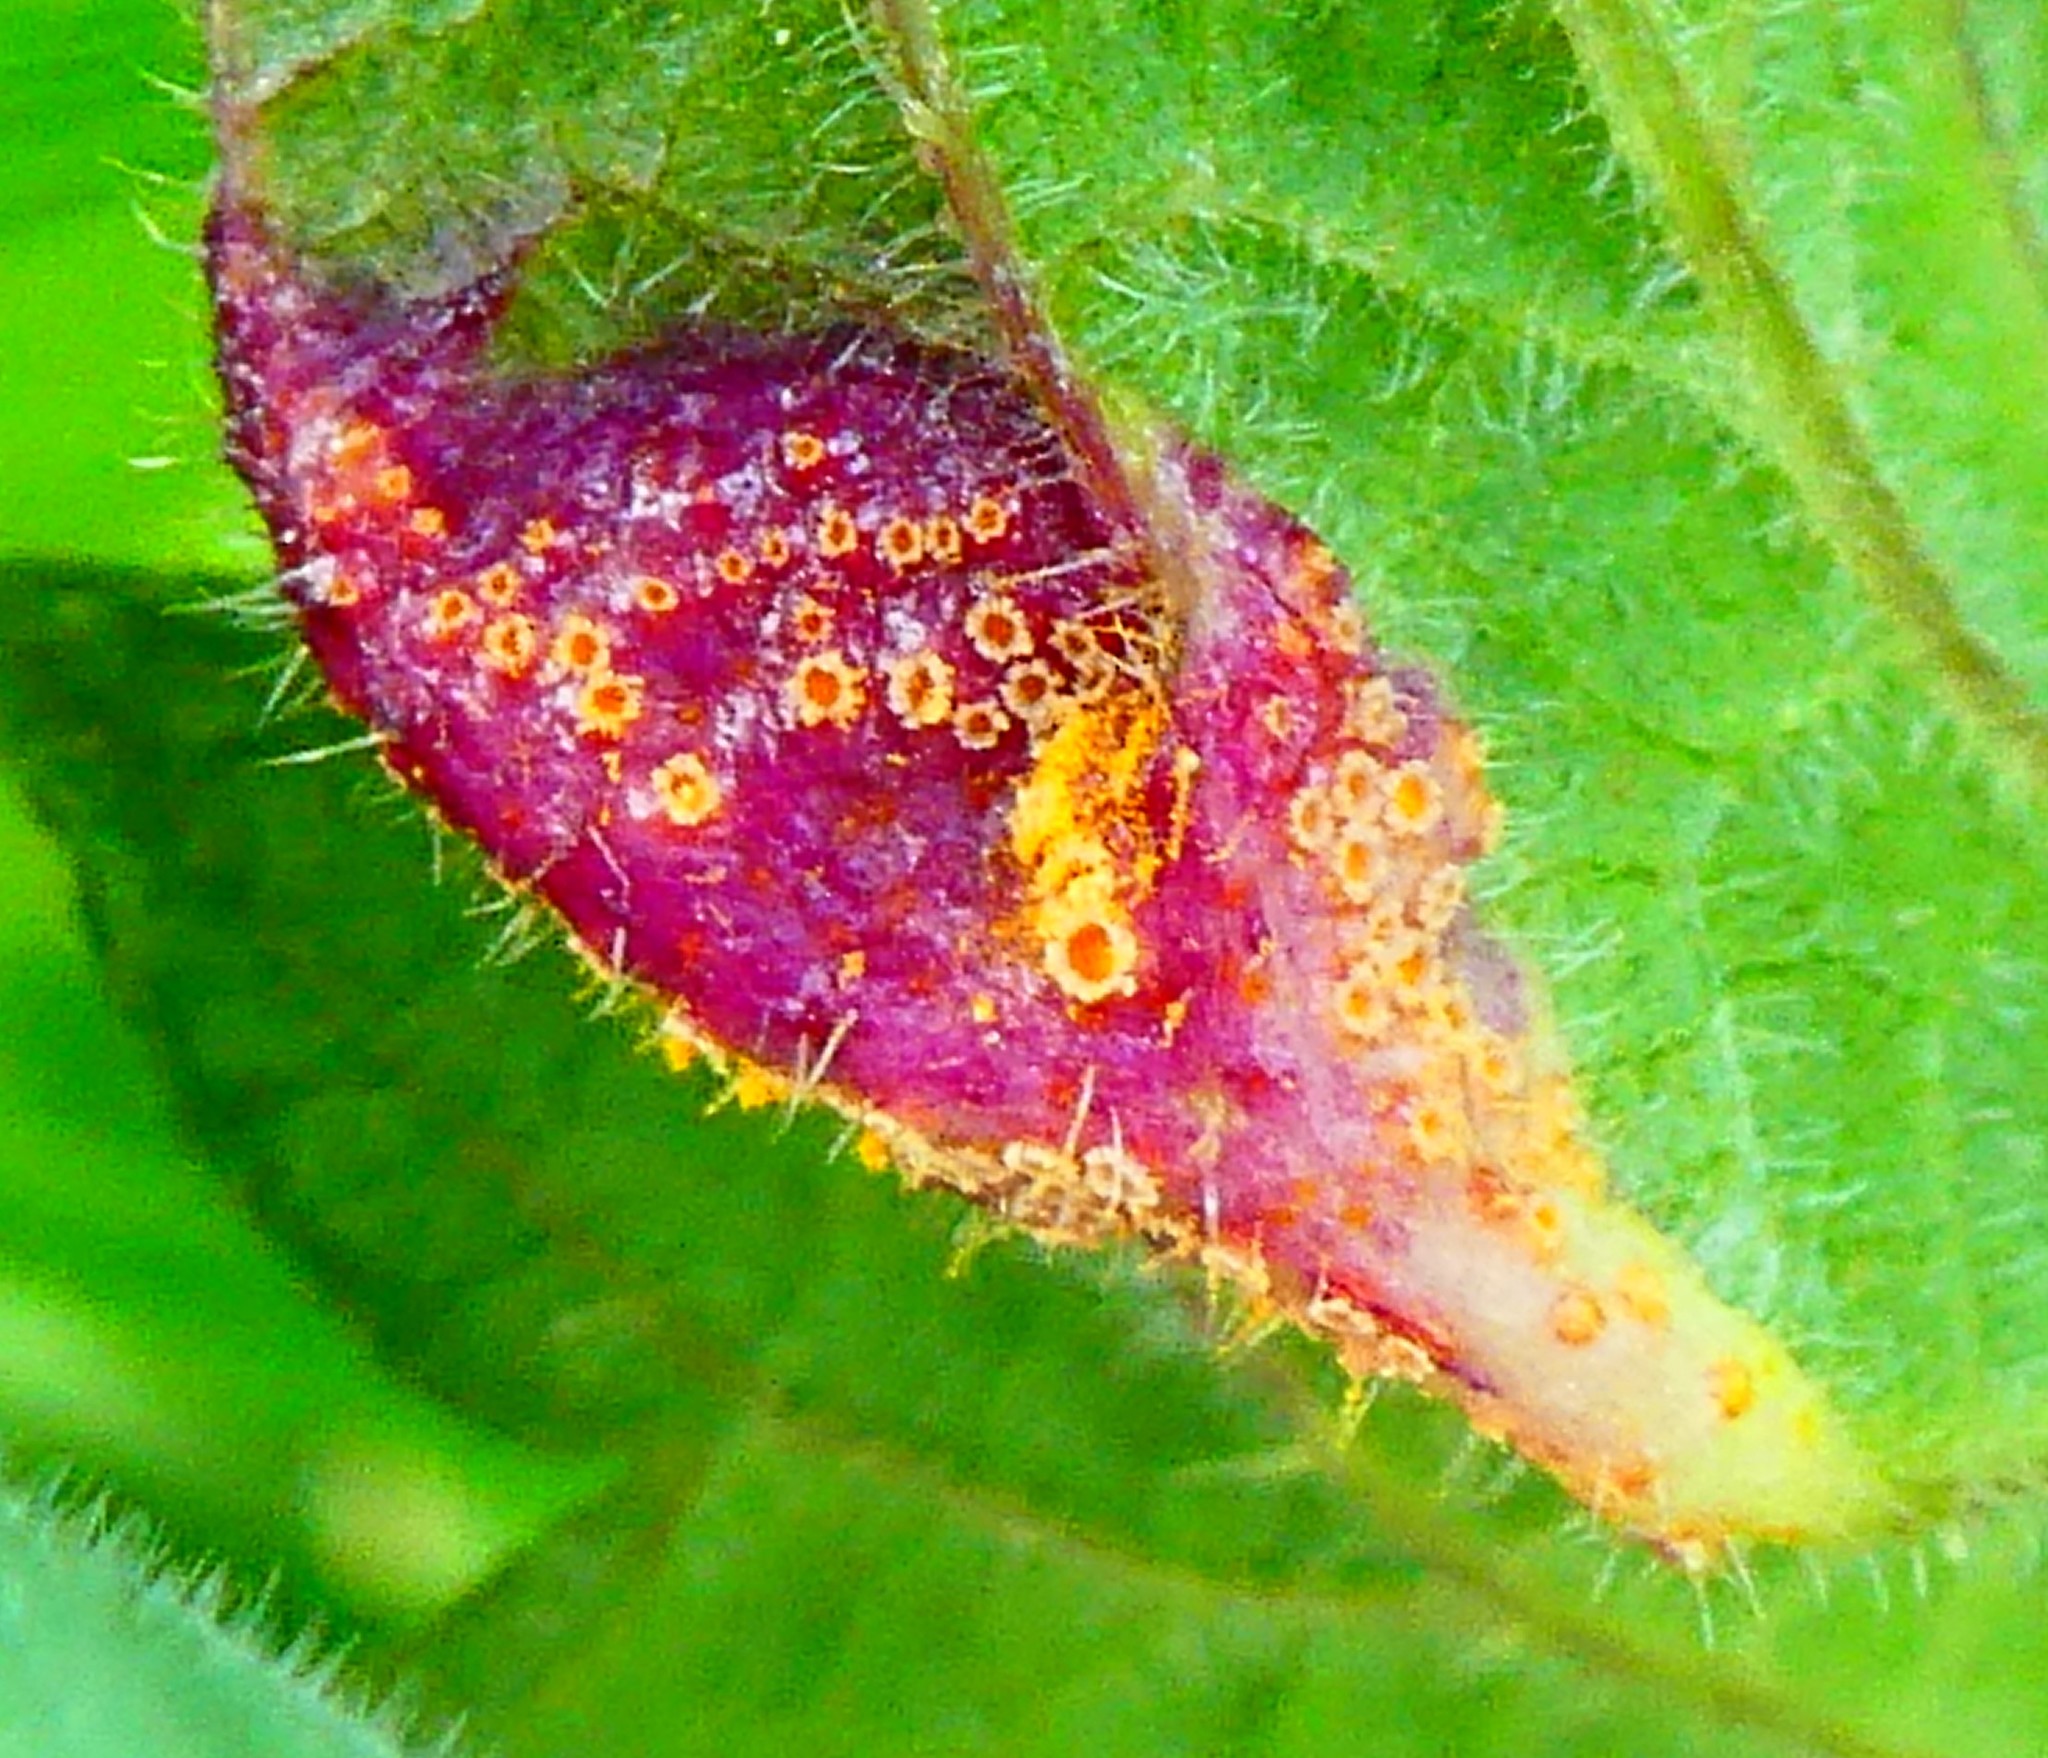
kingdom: Fungi
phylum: Basidiomycota
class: Pucciniomycetes
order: Pucciniales
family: Pucciniaceae
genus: Puccinia
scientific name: Puccinia urticata
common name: Nettle clustercup rust fungus
